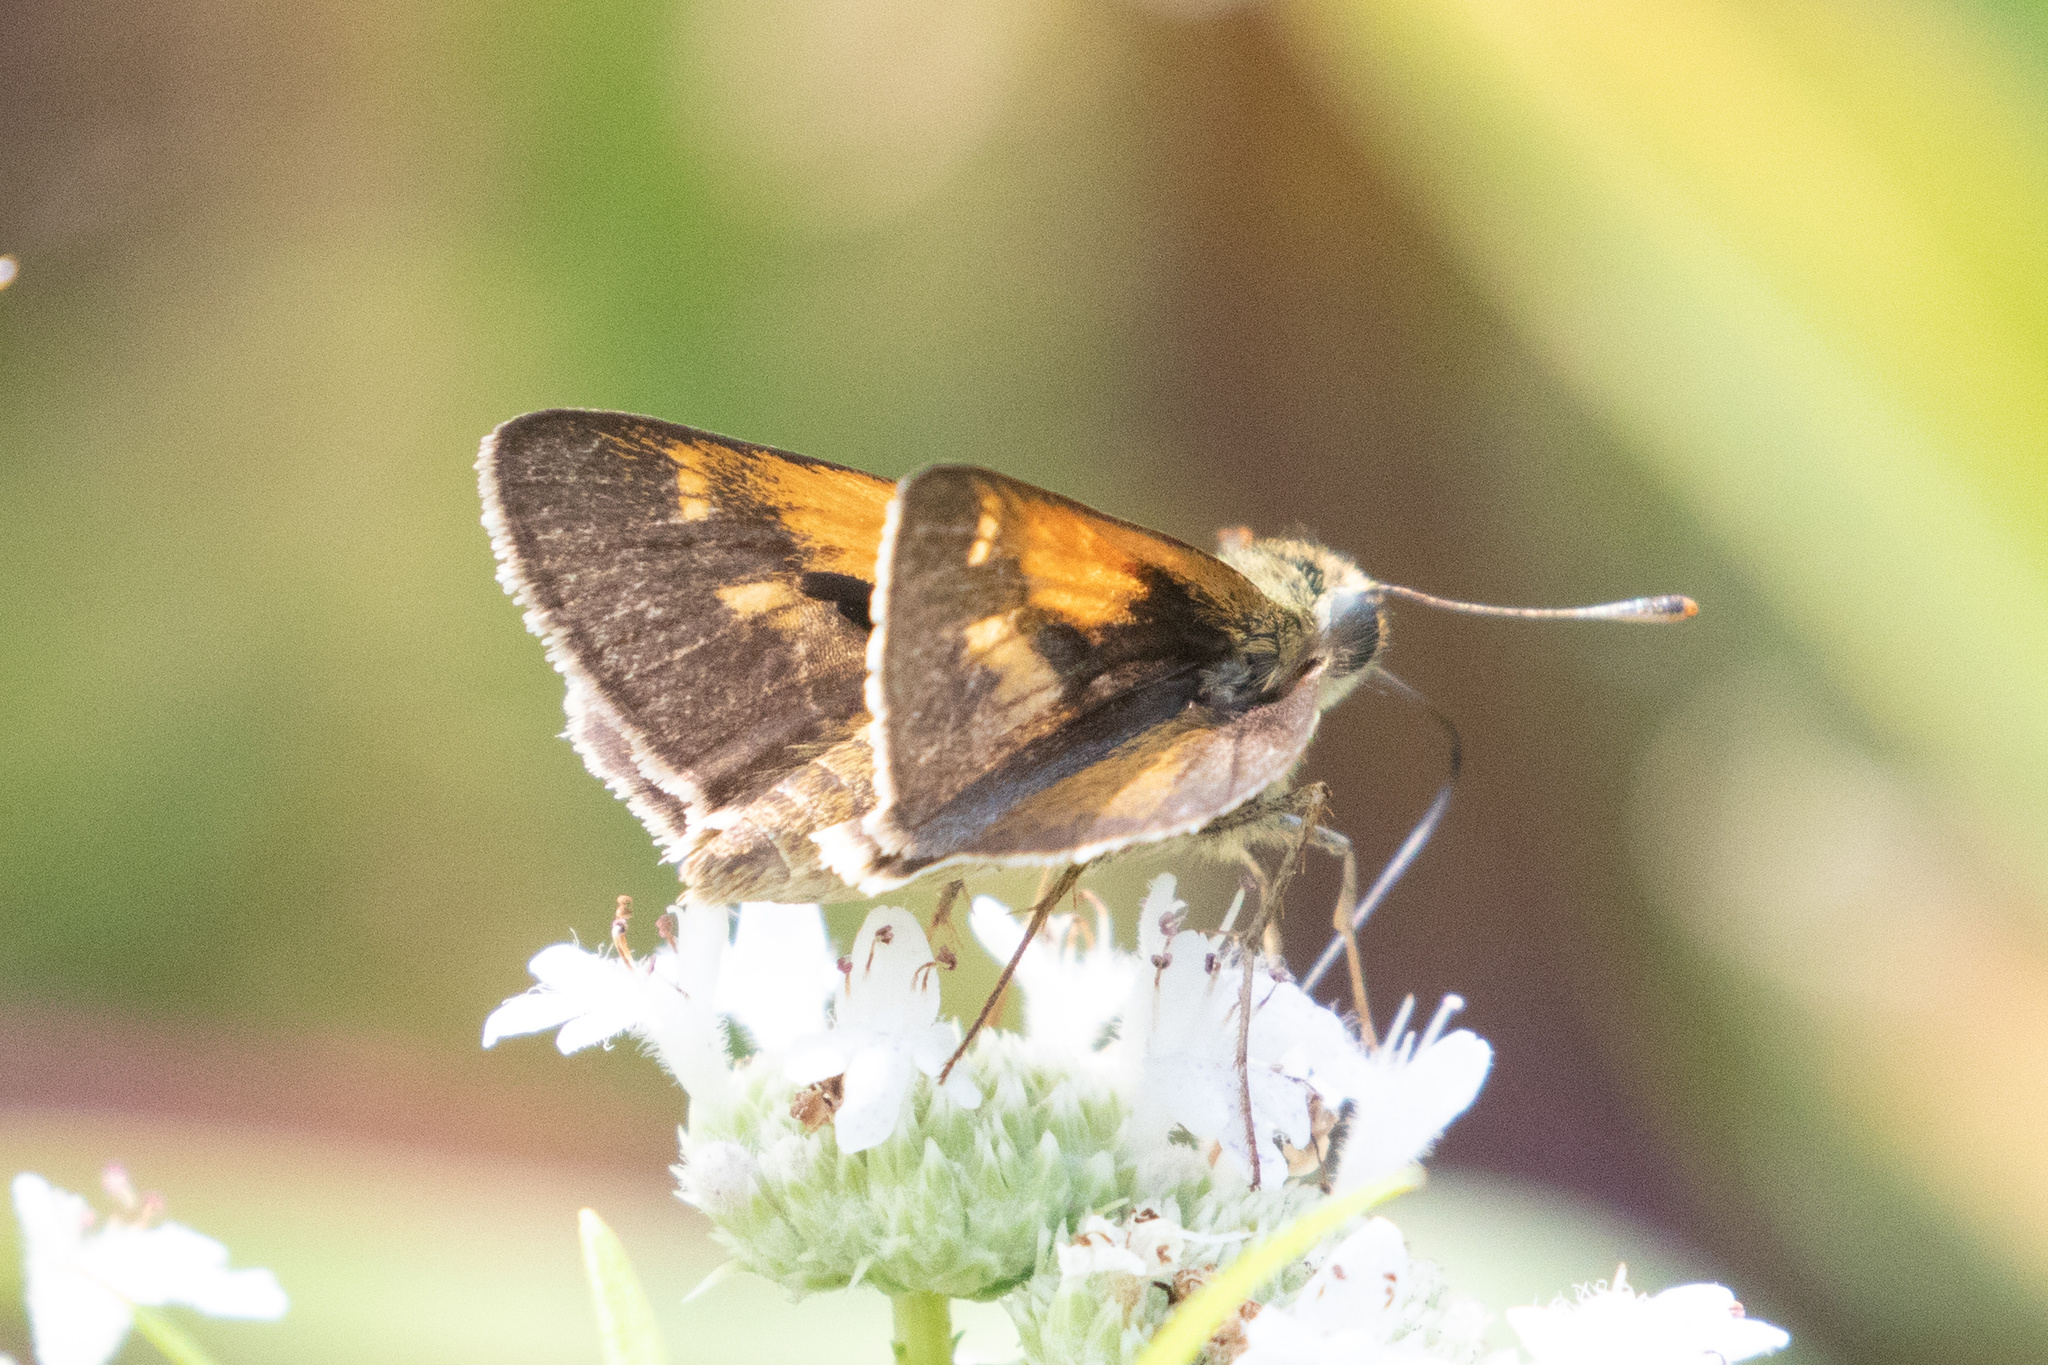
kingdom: Animalia
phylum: Arthropoda
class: Insecta
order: Lepidoptera
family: Hesperiidae
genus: Polites
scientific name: Polites themistocles
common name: Tawny-edged skipper
